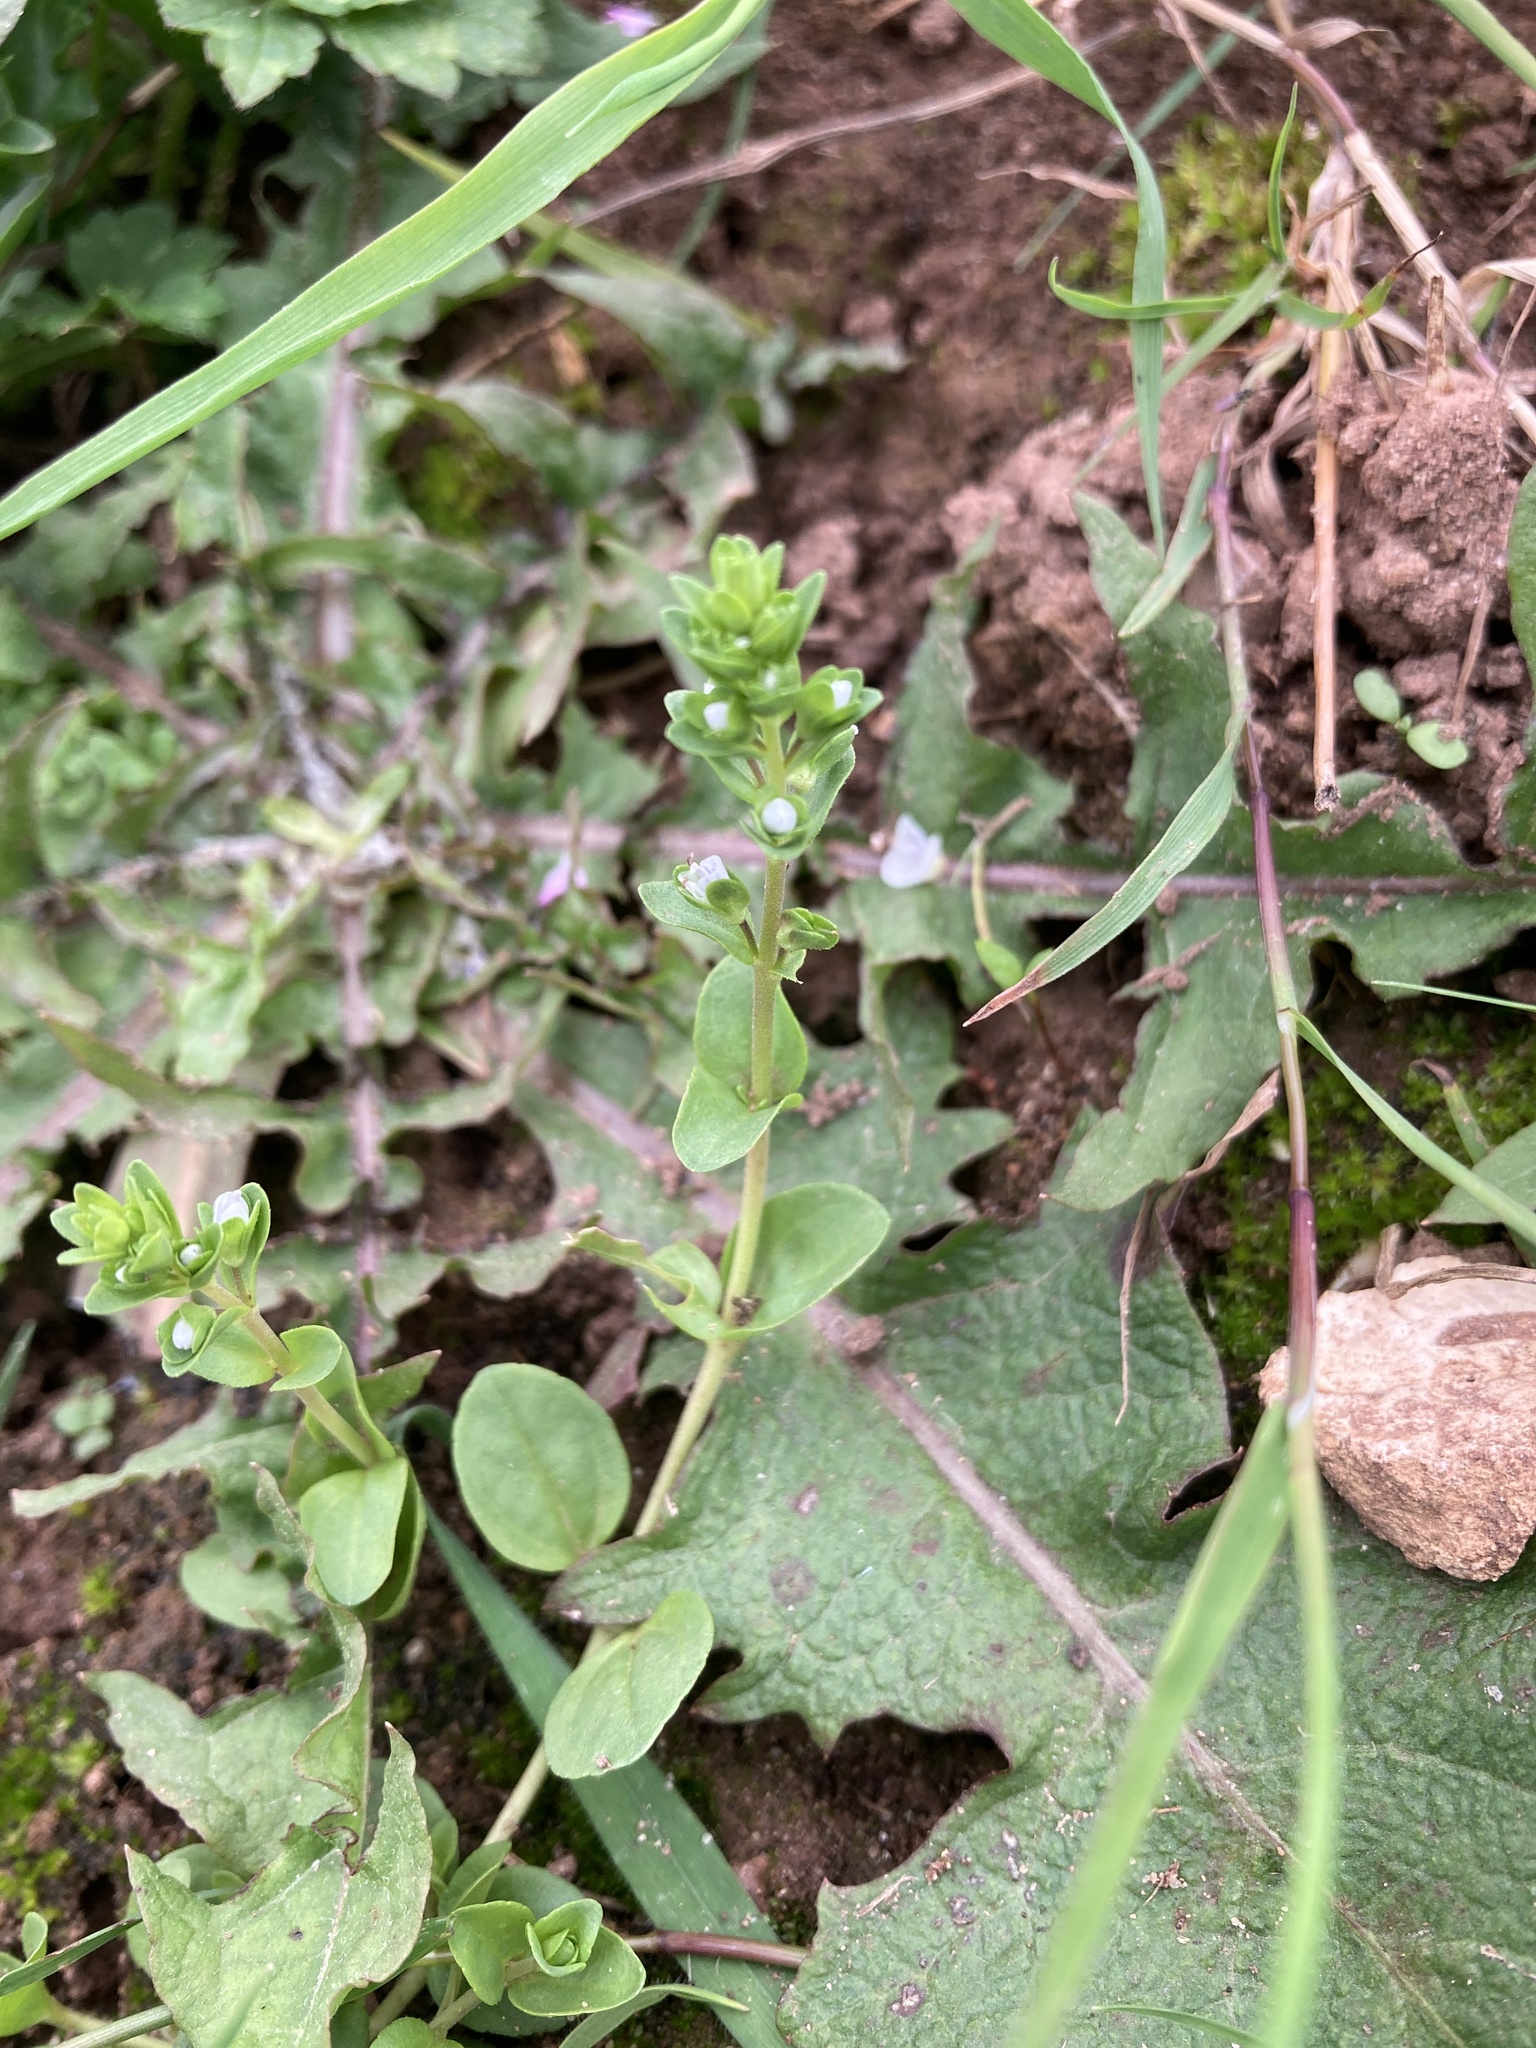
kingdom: Plantae
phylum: Tracheophyta
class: Magnoliopsida
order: Lamiales
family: Plantaginaceae
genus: Veronica
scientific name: Veronica serpyllifolia
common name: Thyme-leaved speedwell
